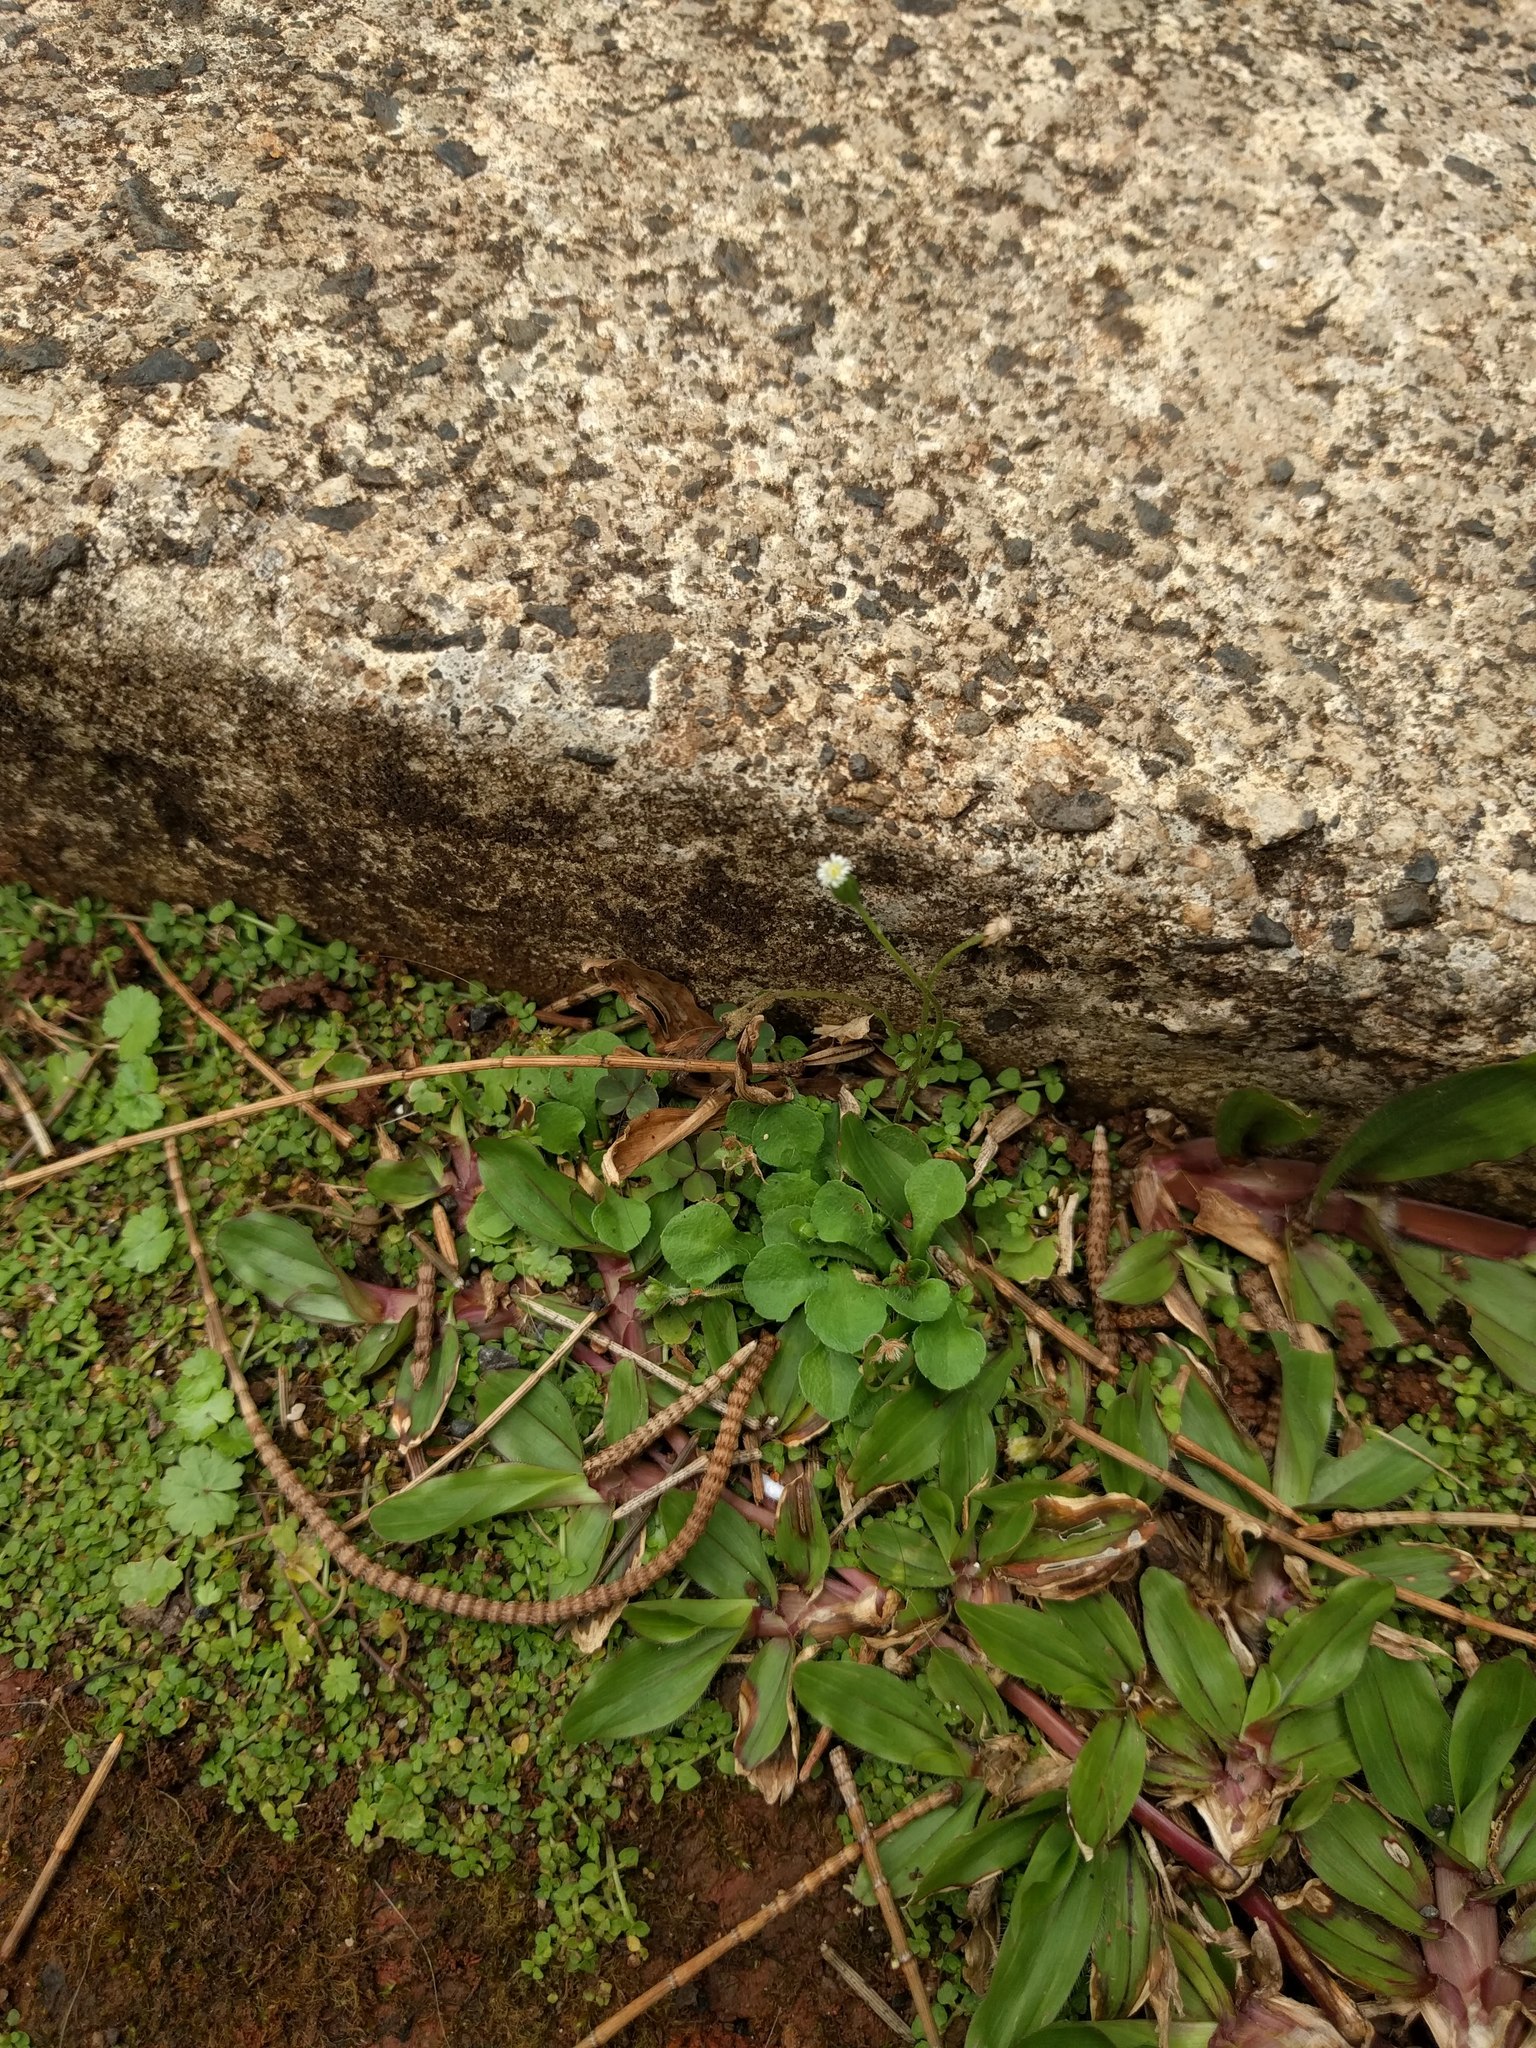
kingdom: Plantae
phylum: Tracheophyta
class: Magnoliopsida
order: Asterales
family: Asteraceae
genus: Erigeron
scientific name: Erigeron bellioides
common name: Bellorita
